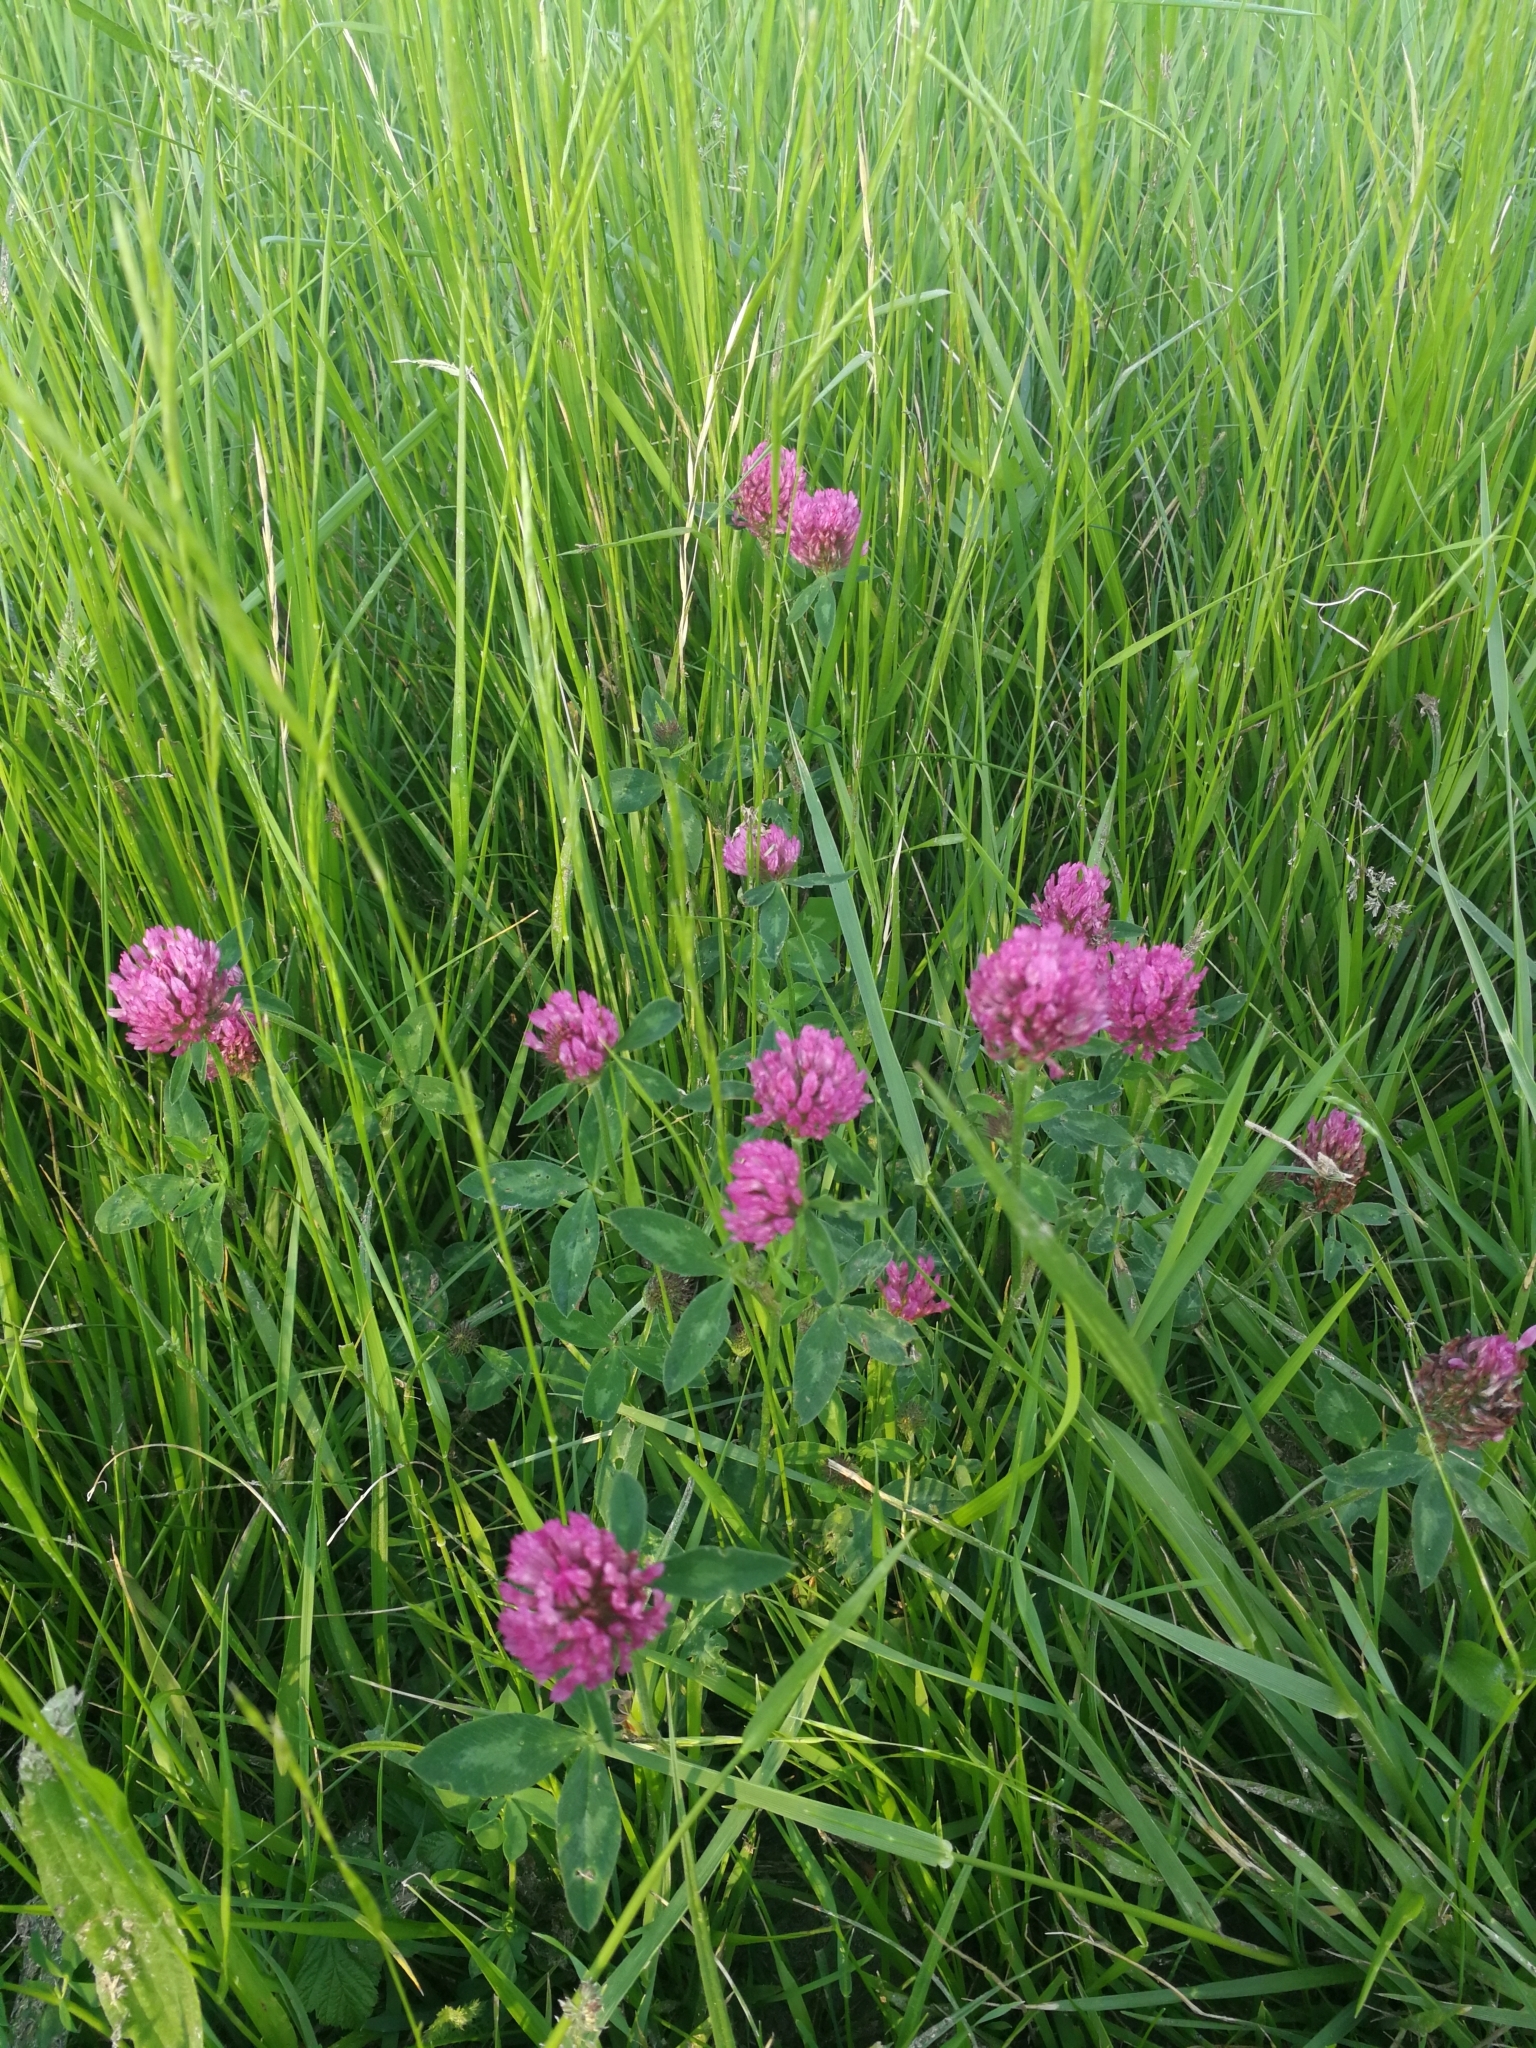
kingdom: Plantae
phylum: Tracheophyta
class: Magnoliopsida
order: Fabales
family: Fabaceae
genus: Trifolium
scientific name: Trifolium pratense
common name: Red clover
